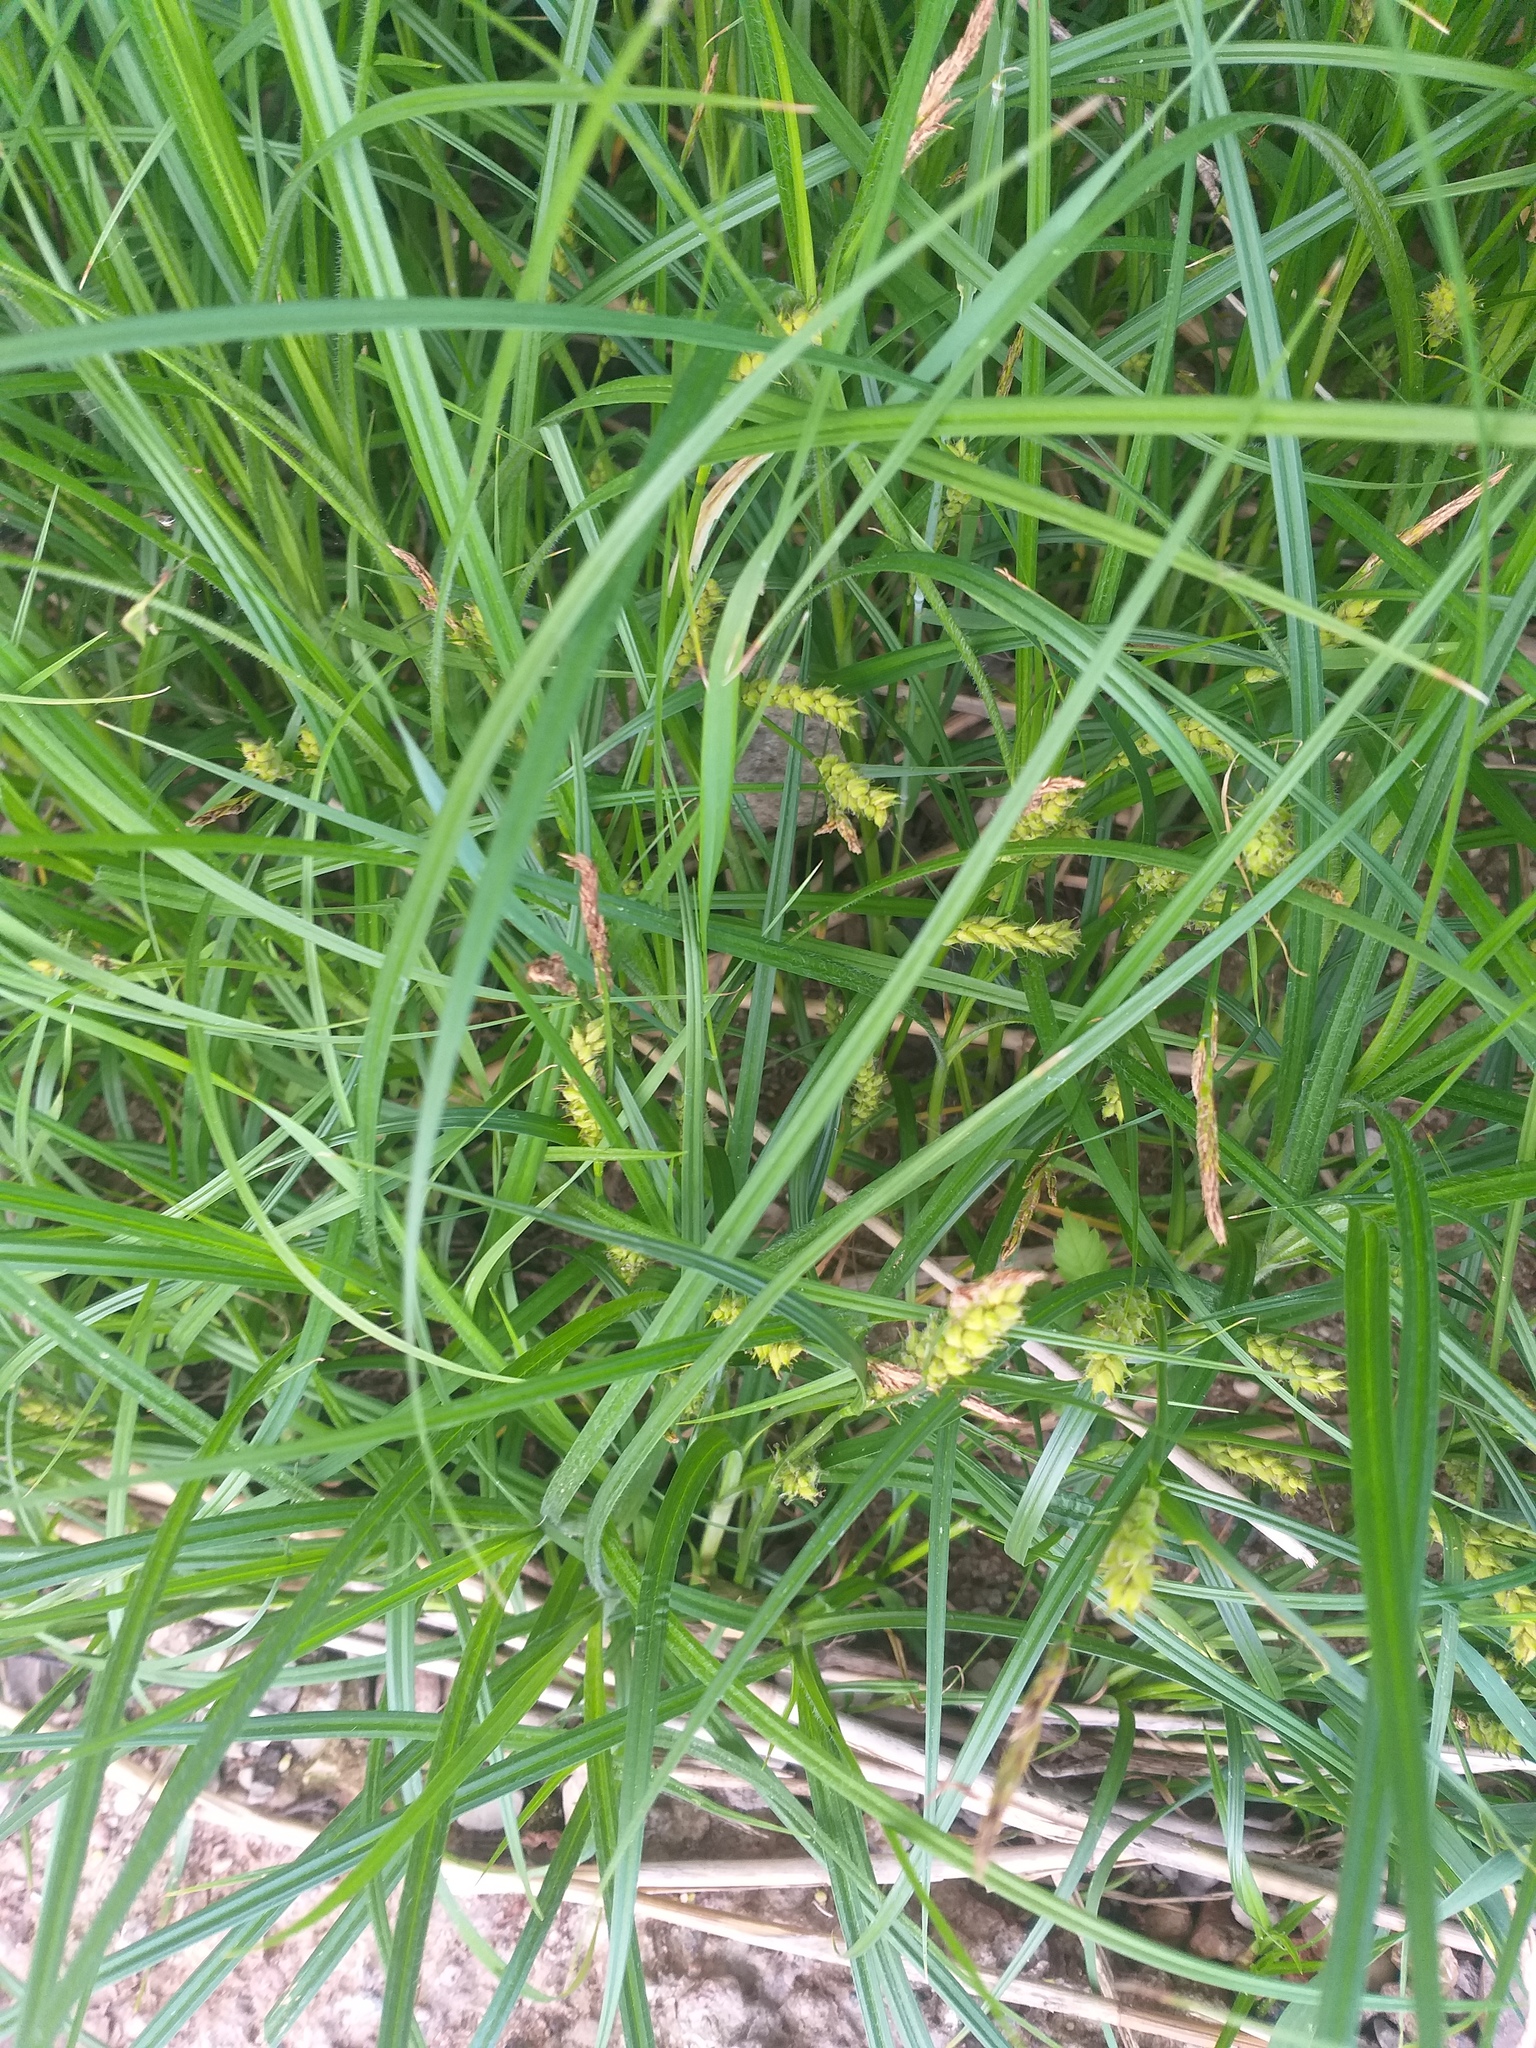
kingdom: Plantae
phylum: Tracheophyta
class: Liliopsida
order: Poales
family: Cyperaceae
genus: Carex
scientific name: Carex hirta
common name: Hairy sedge
